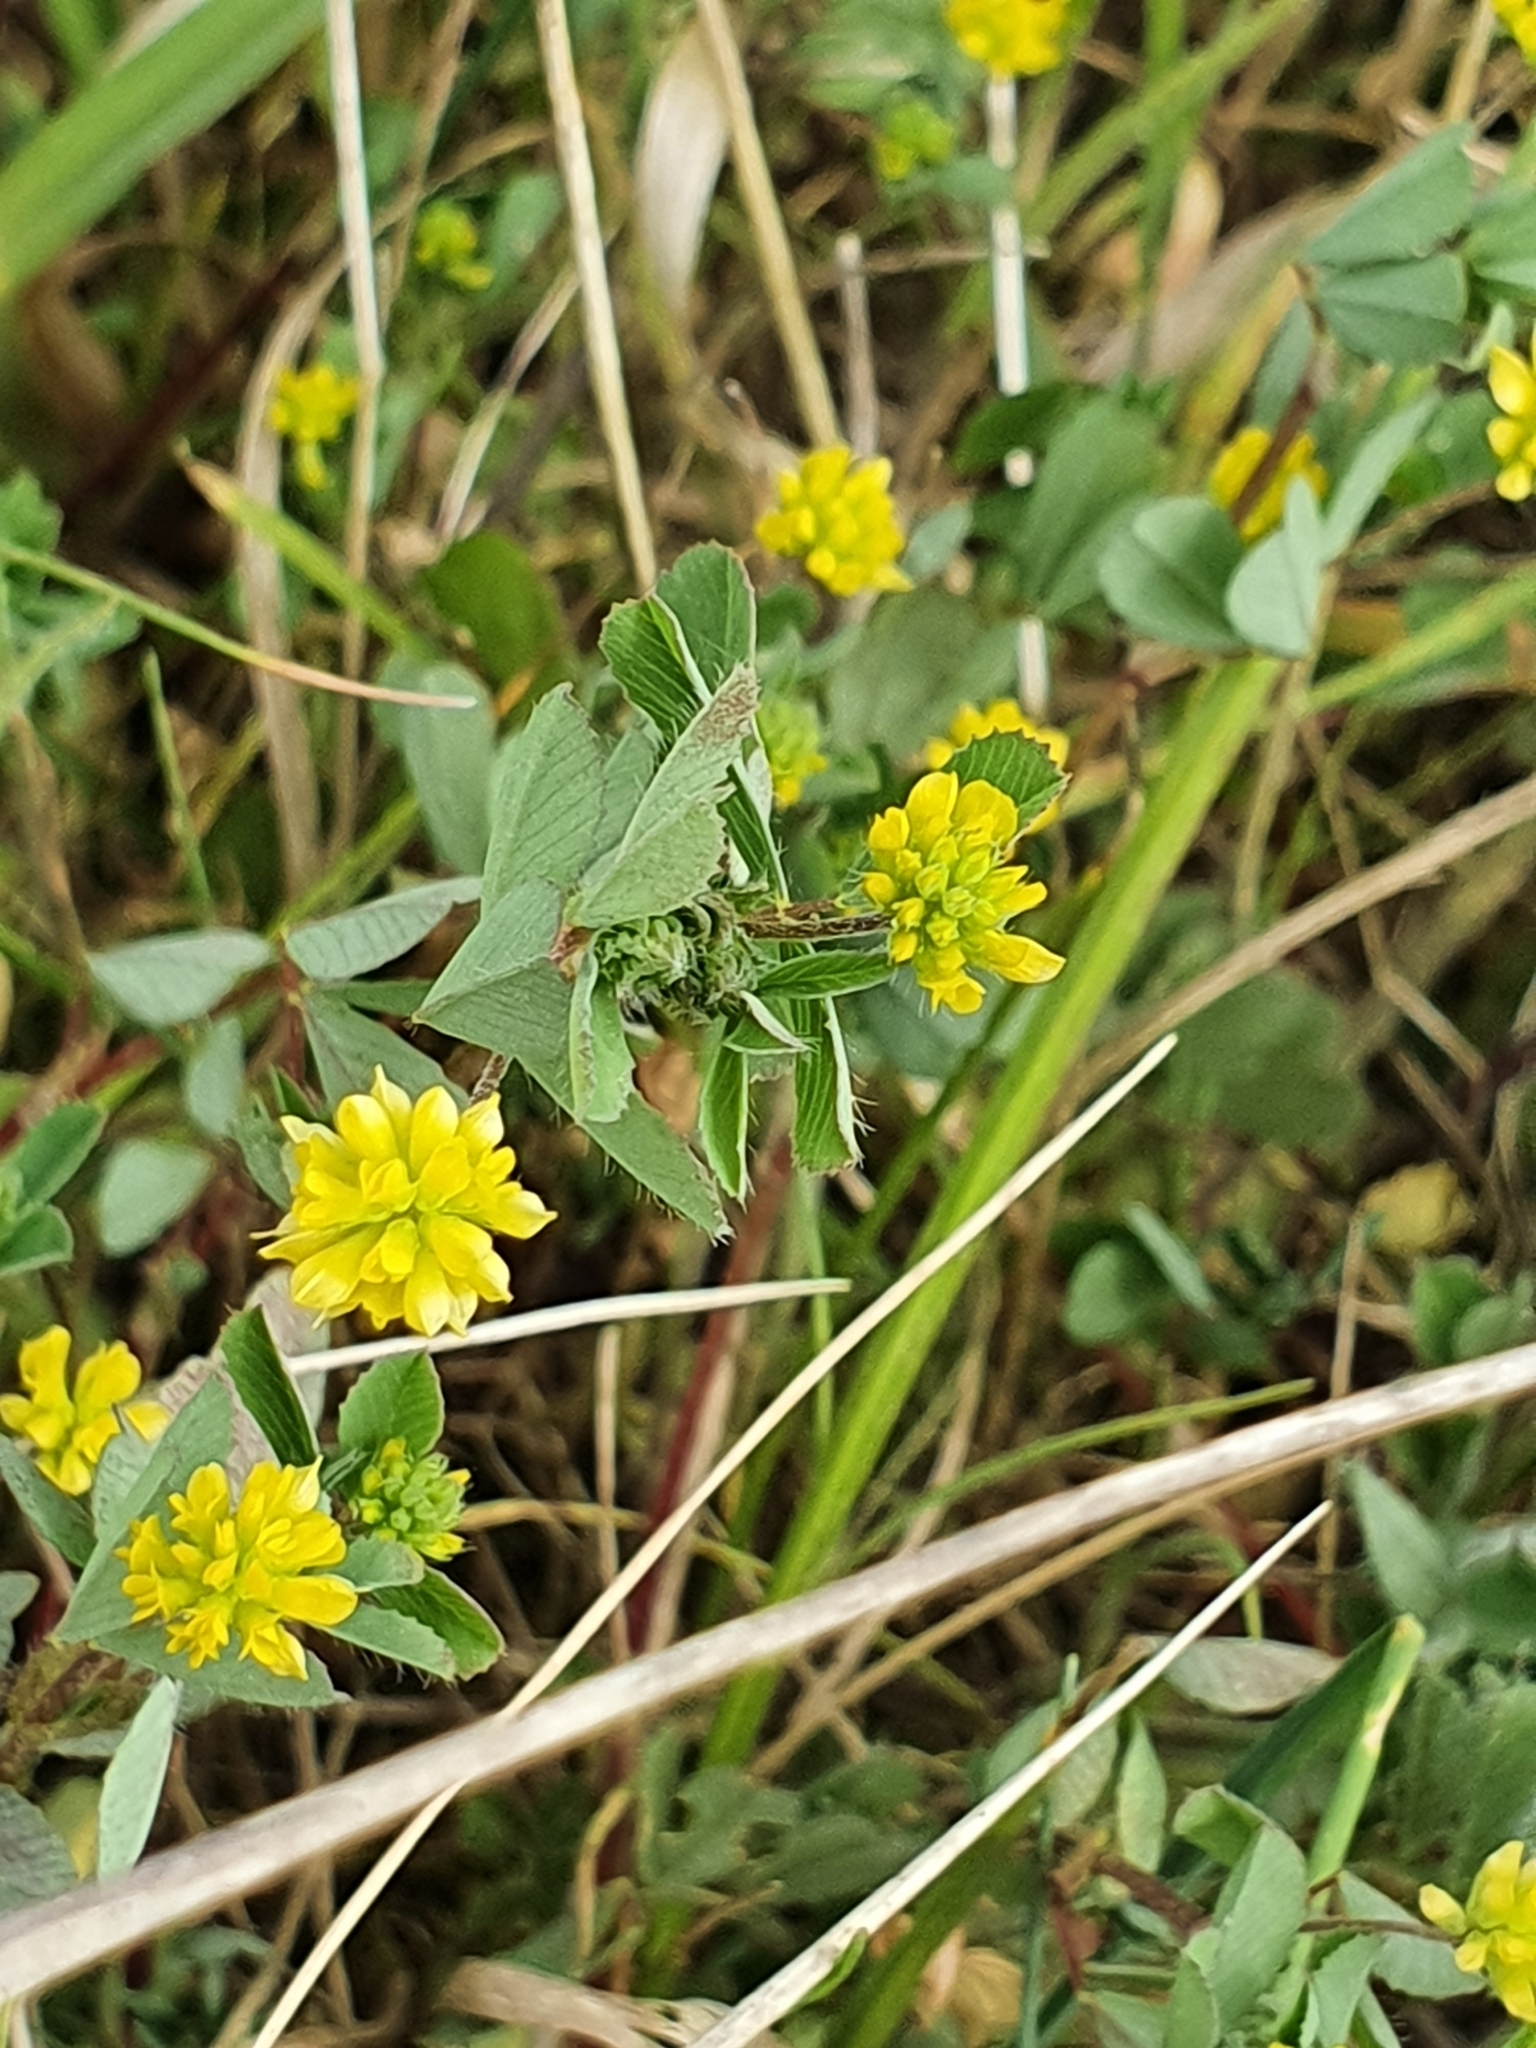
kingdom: Plantae
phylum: Tracheophyta
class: Magnoliopsida
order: Fabales
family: Fabaceae
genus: Trifolium
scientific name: Trifolium dubium
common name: Suckling clover
